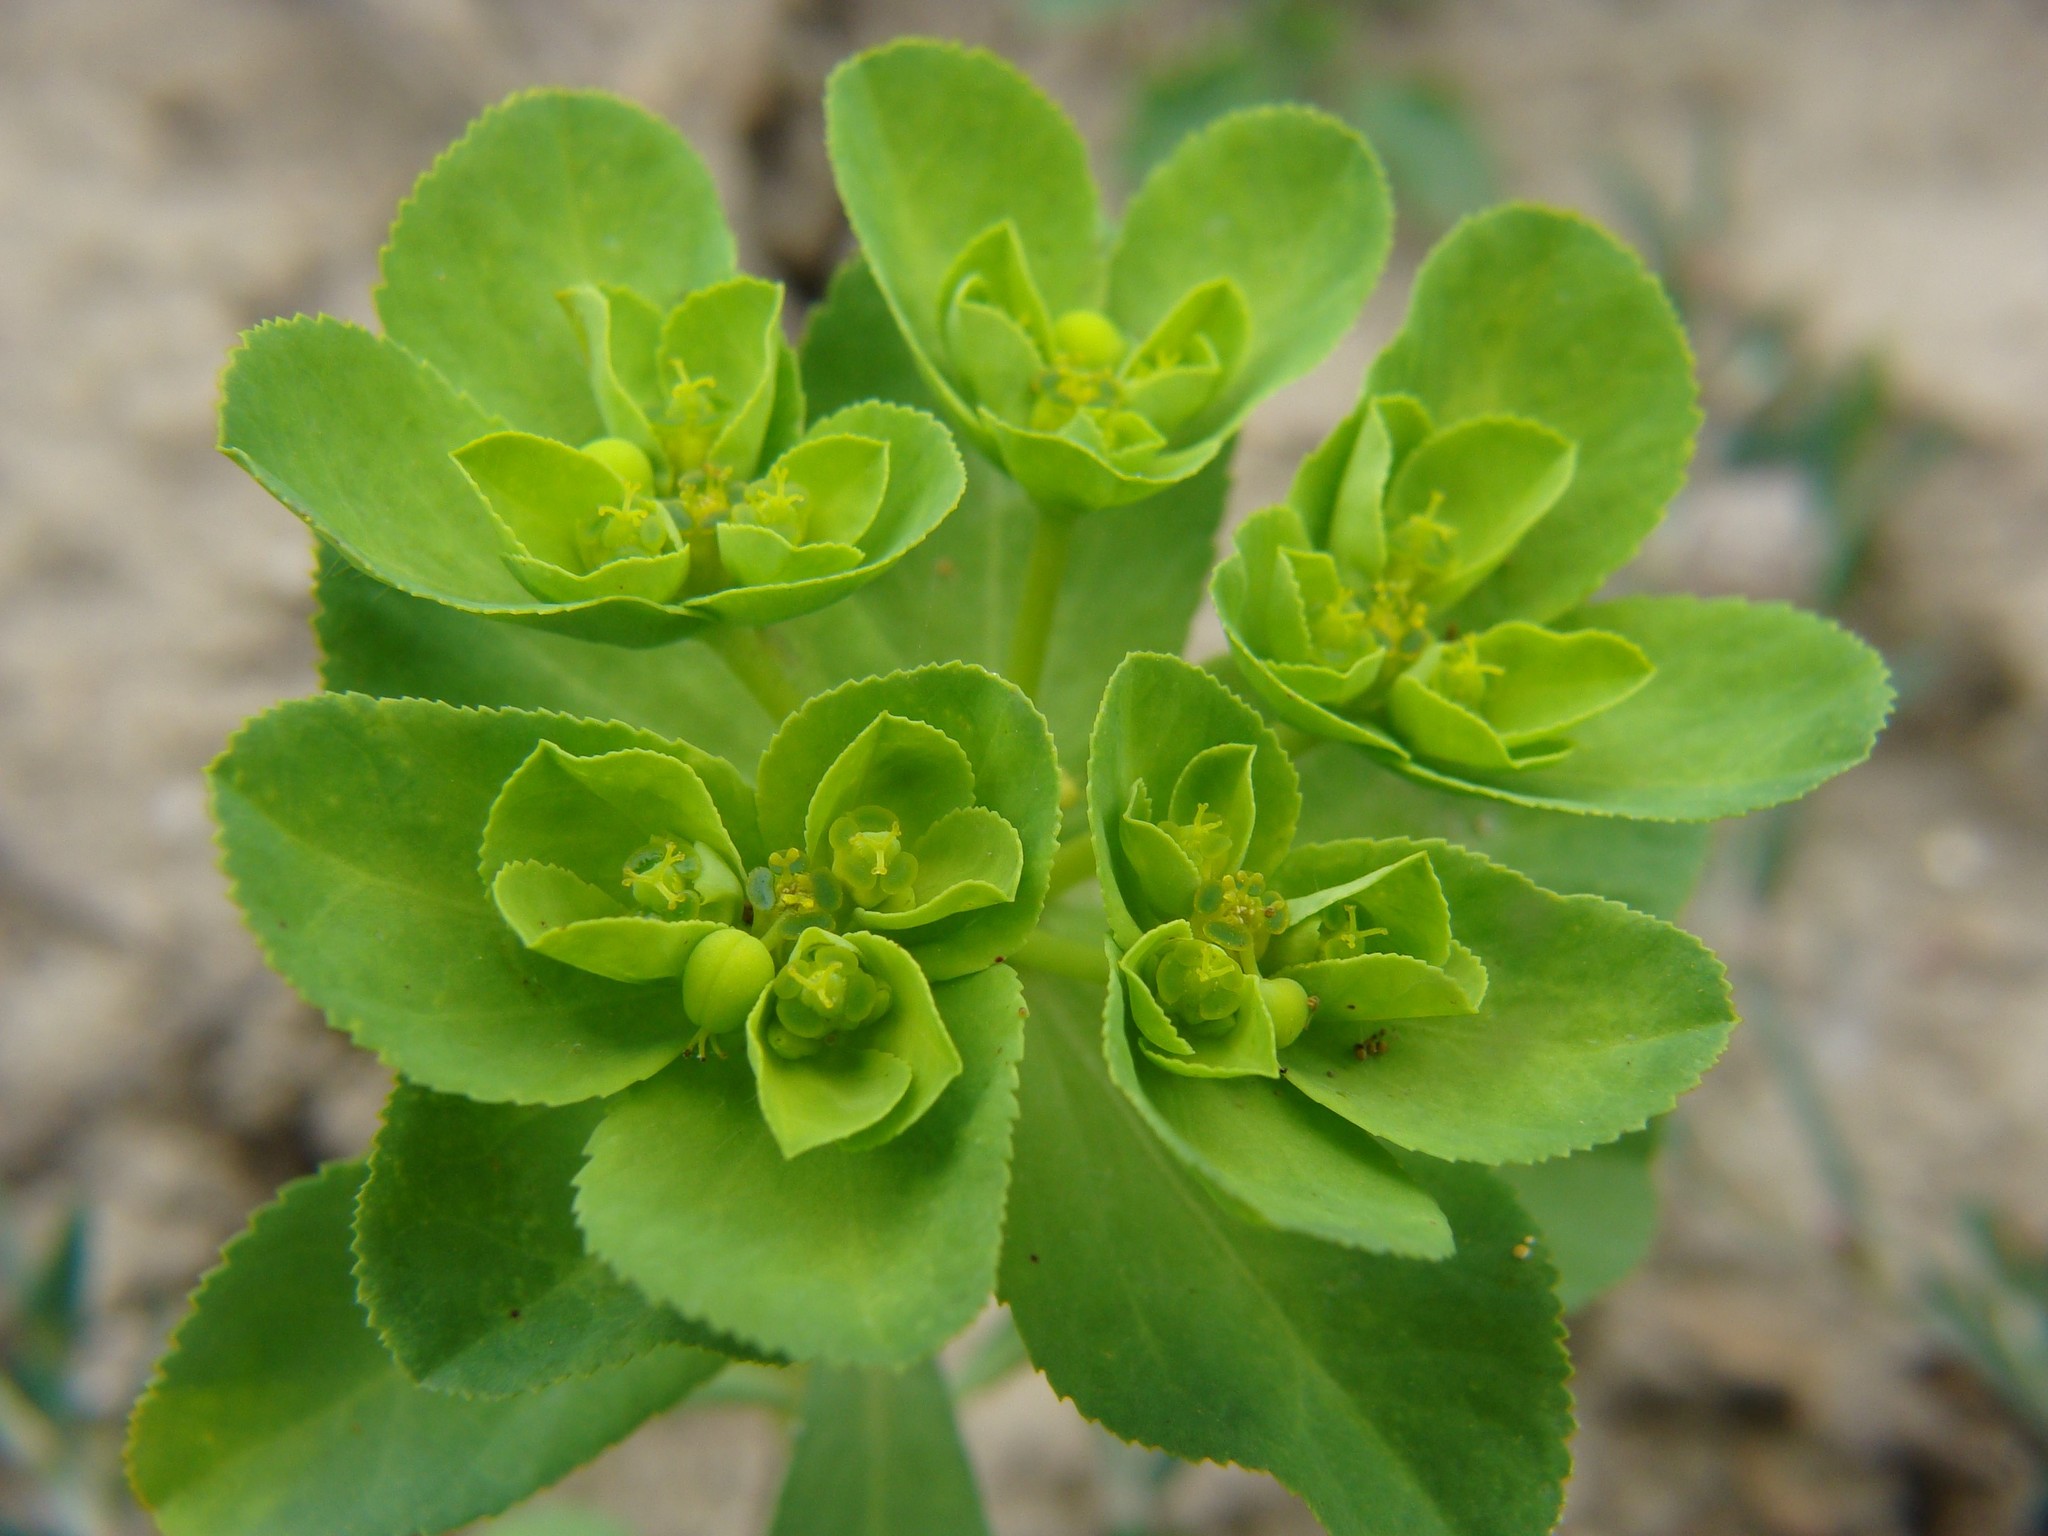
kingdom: Plantae
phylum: Tracheophyta
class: Magnoliopsida
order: Malpighiales
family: Euphorbiaceae
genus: Euphorbia
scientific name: Euphorbia helioscopia
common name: Sun spurge
